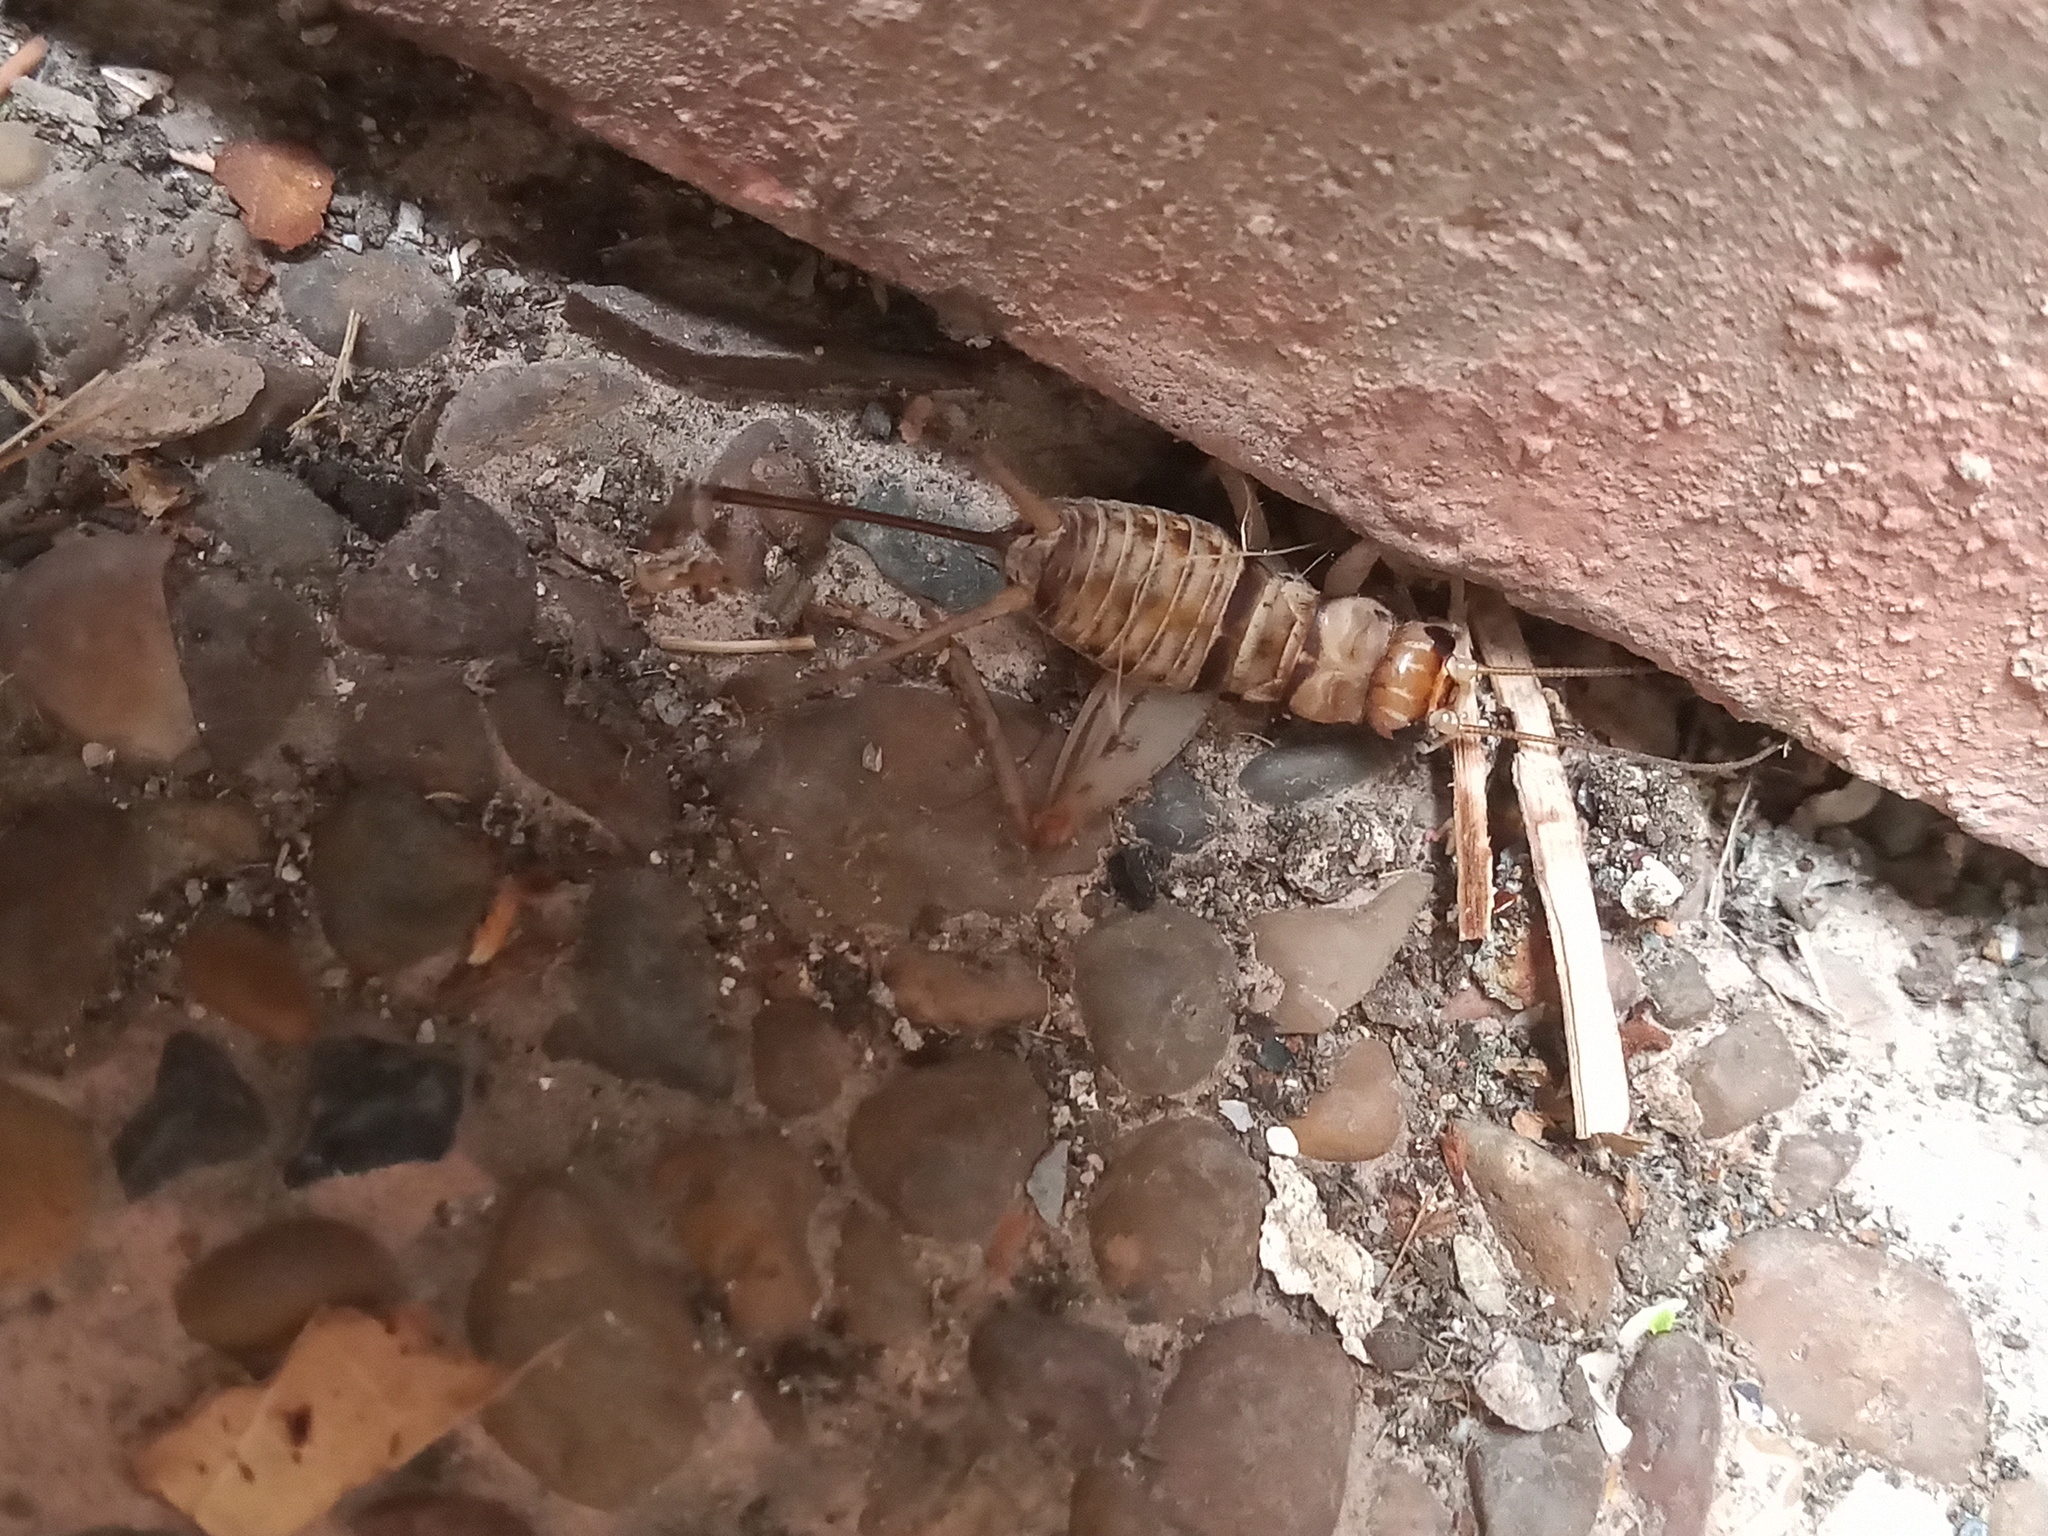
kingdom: Animalia
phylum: Arthropoda
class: Insecta
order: Orthoptera
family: Gryllidae
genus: Gryllodes
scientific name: Gryllodes sigillatus
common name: Tropical house cricket
